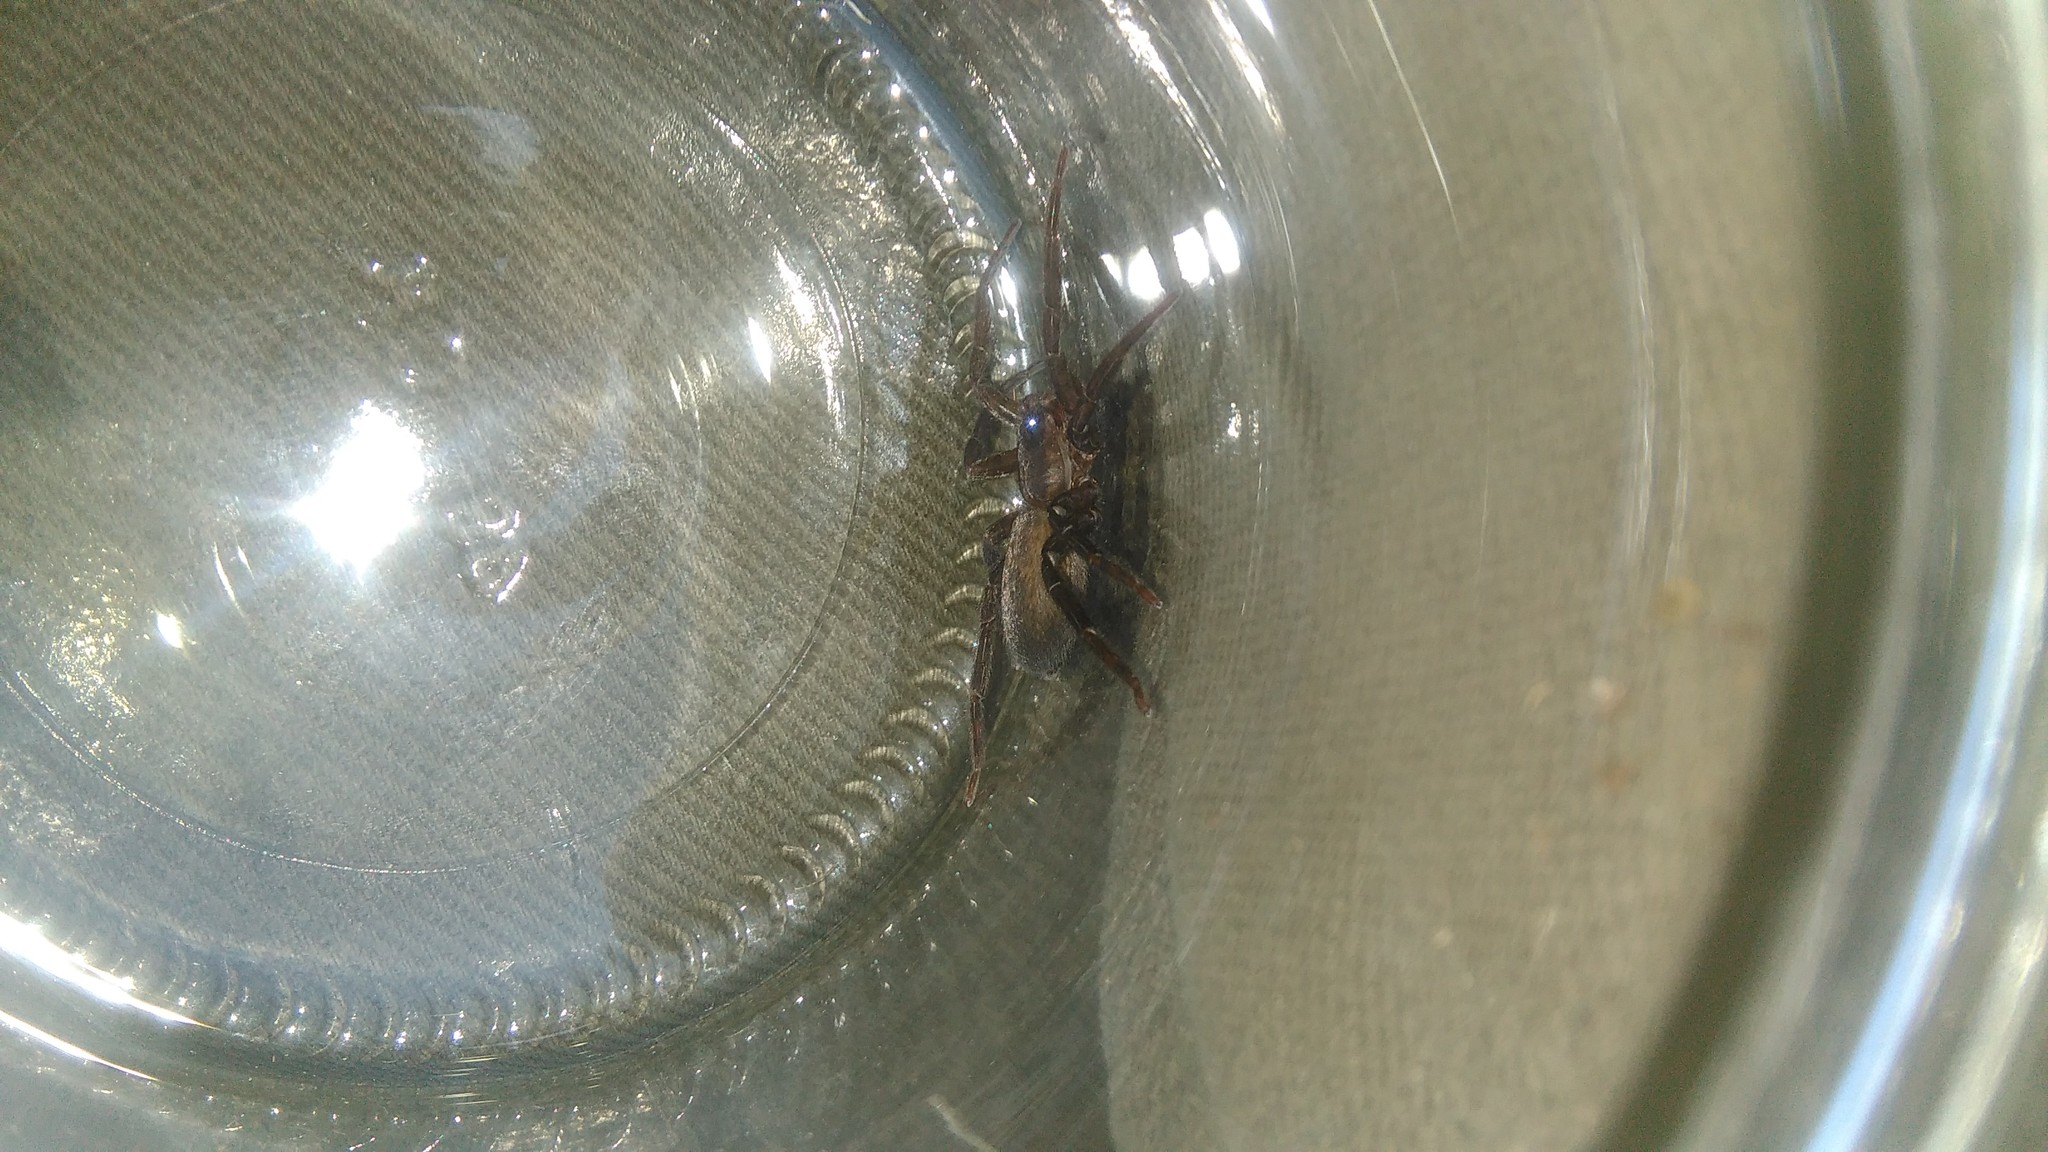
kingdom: Animalia
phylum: Arthropoda
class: Arachnida
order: Araneae
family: Ctenidae
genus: Asthenoctenus
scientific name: Asthenoctenus borellii
